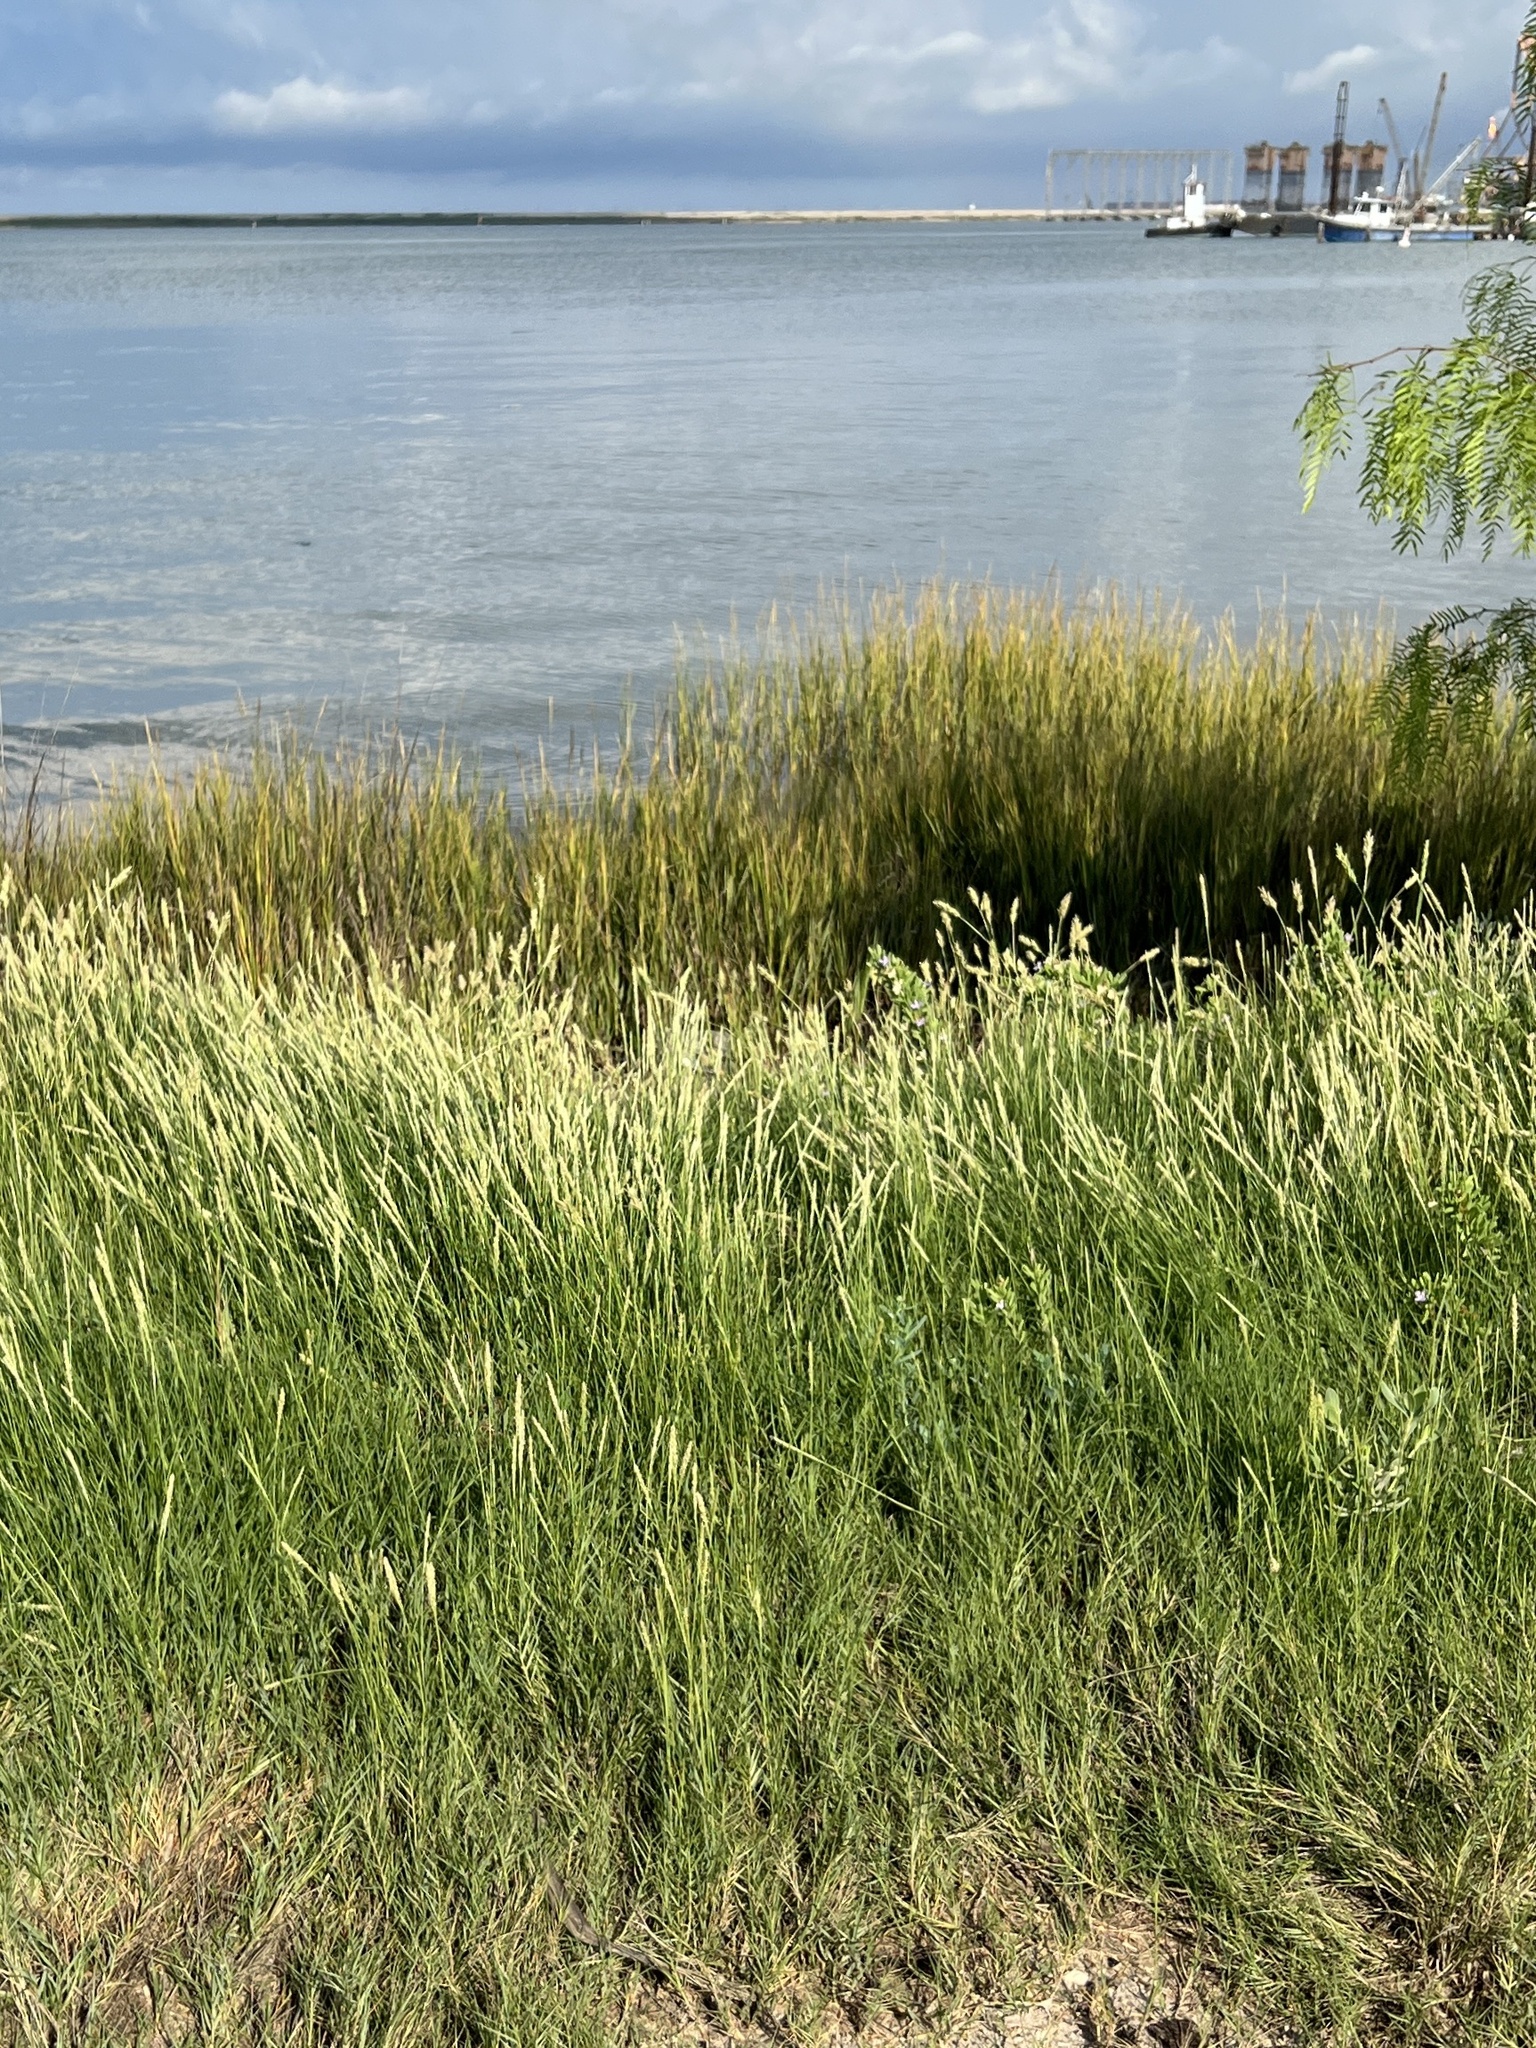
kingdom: Plantae
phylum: Tracheophyta
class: Liliopsida
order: Poales
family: Poaceae
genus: Distichlis
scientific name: Distichlis spicata
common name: Saltgrass
